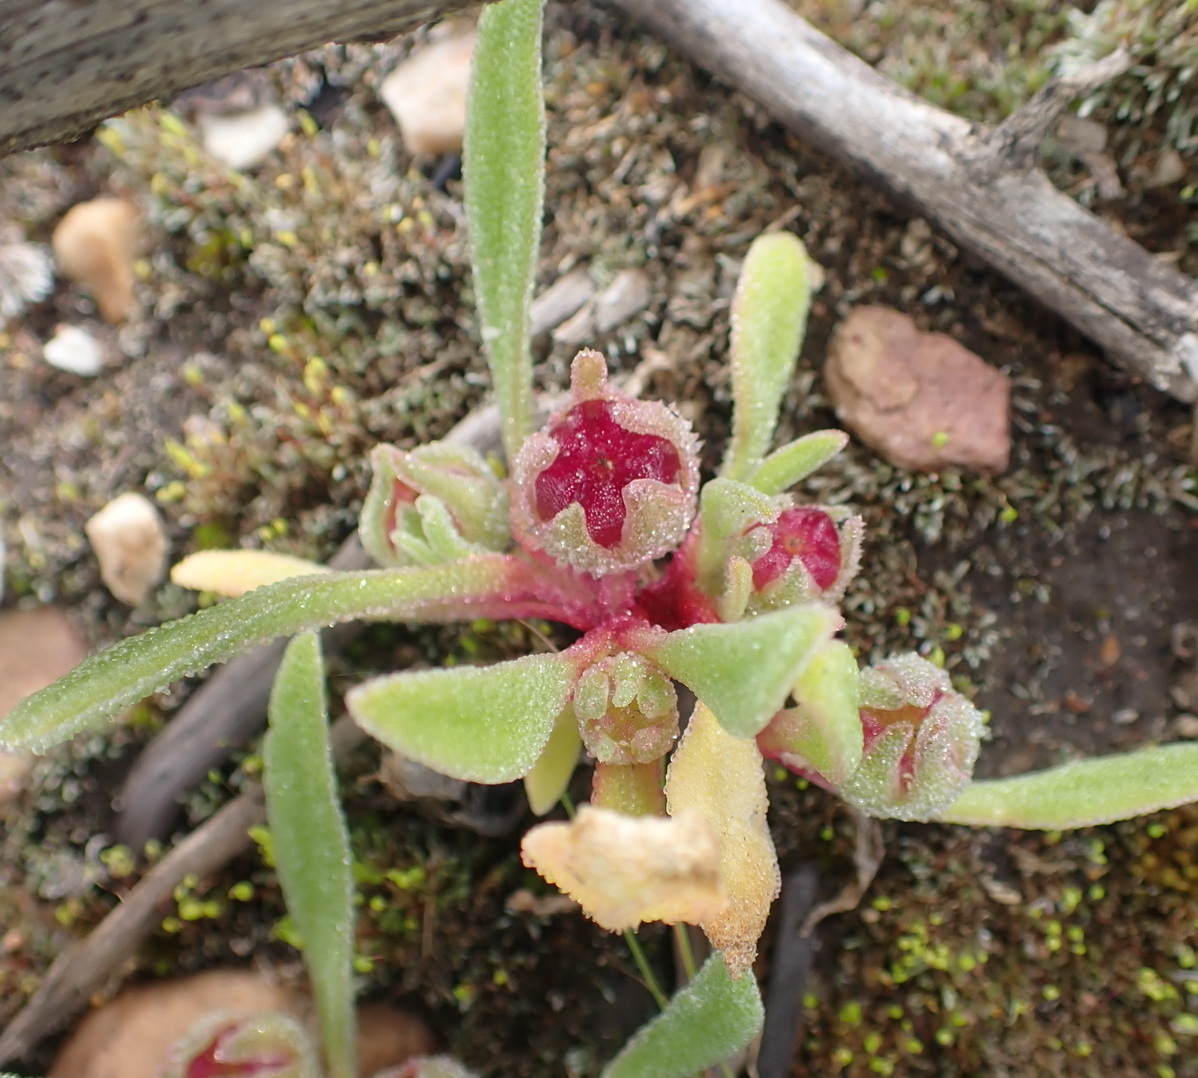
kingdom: Plantae
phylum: Tracheophyta
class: Magnoliopsida
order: Caryophyllales
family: Aizoaceae
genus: Cleretum
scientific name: Cleretum papulosum
